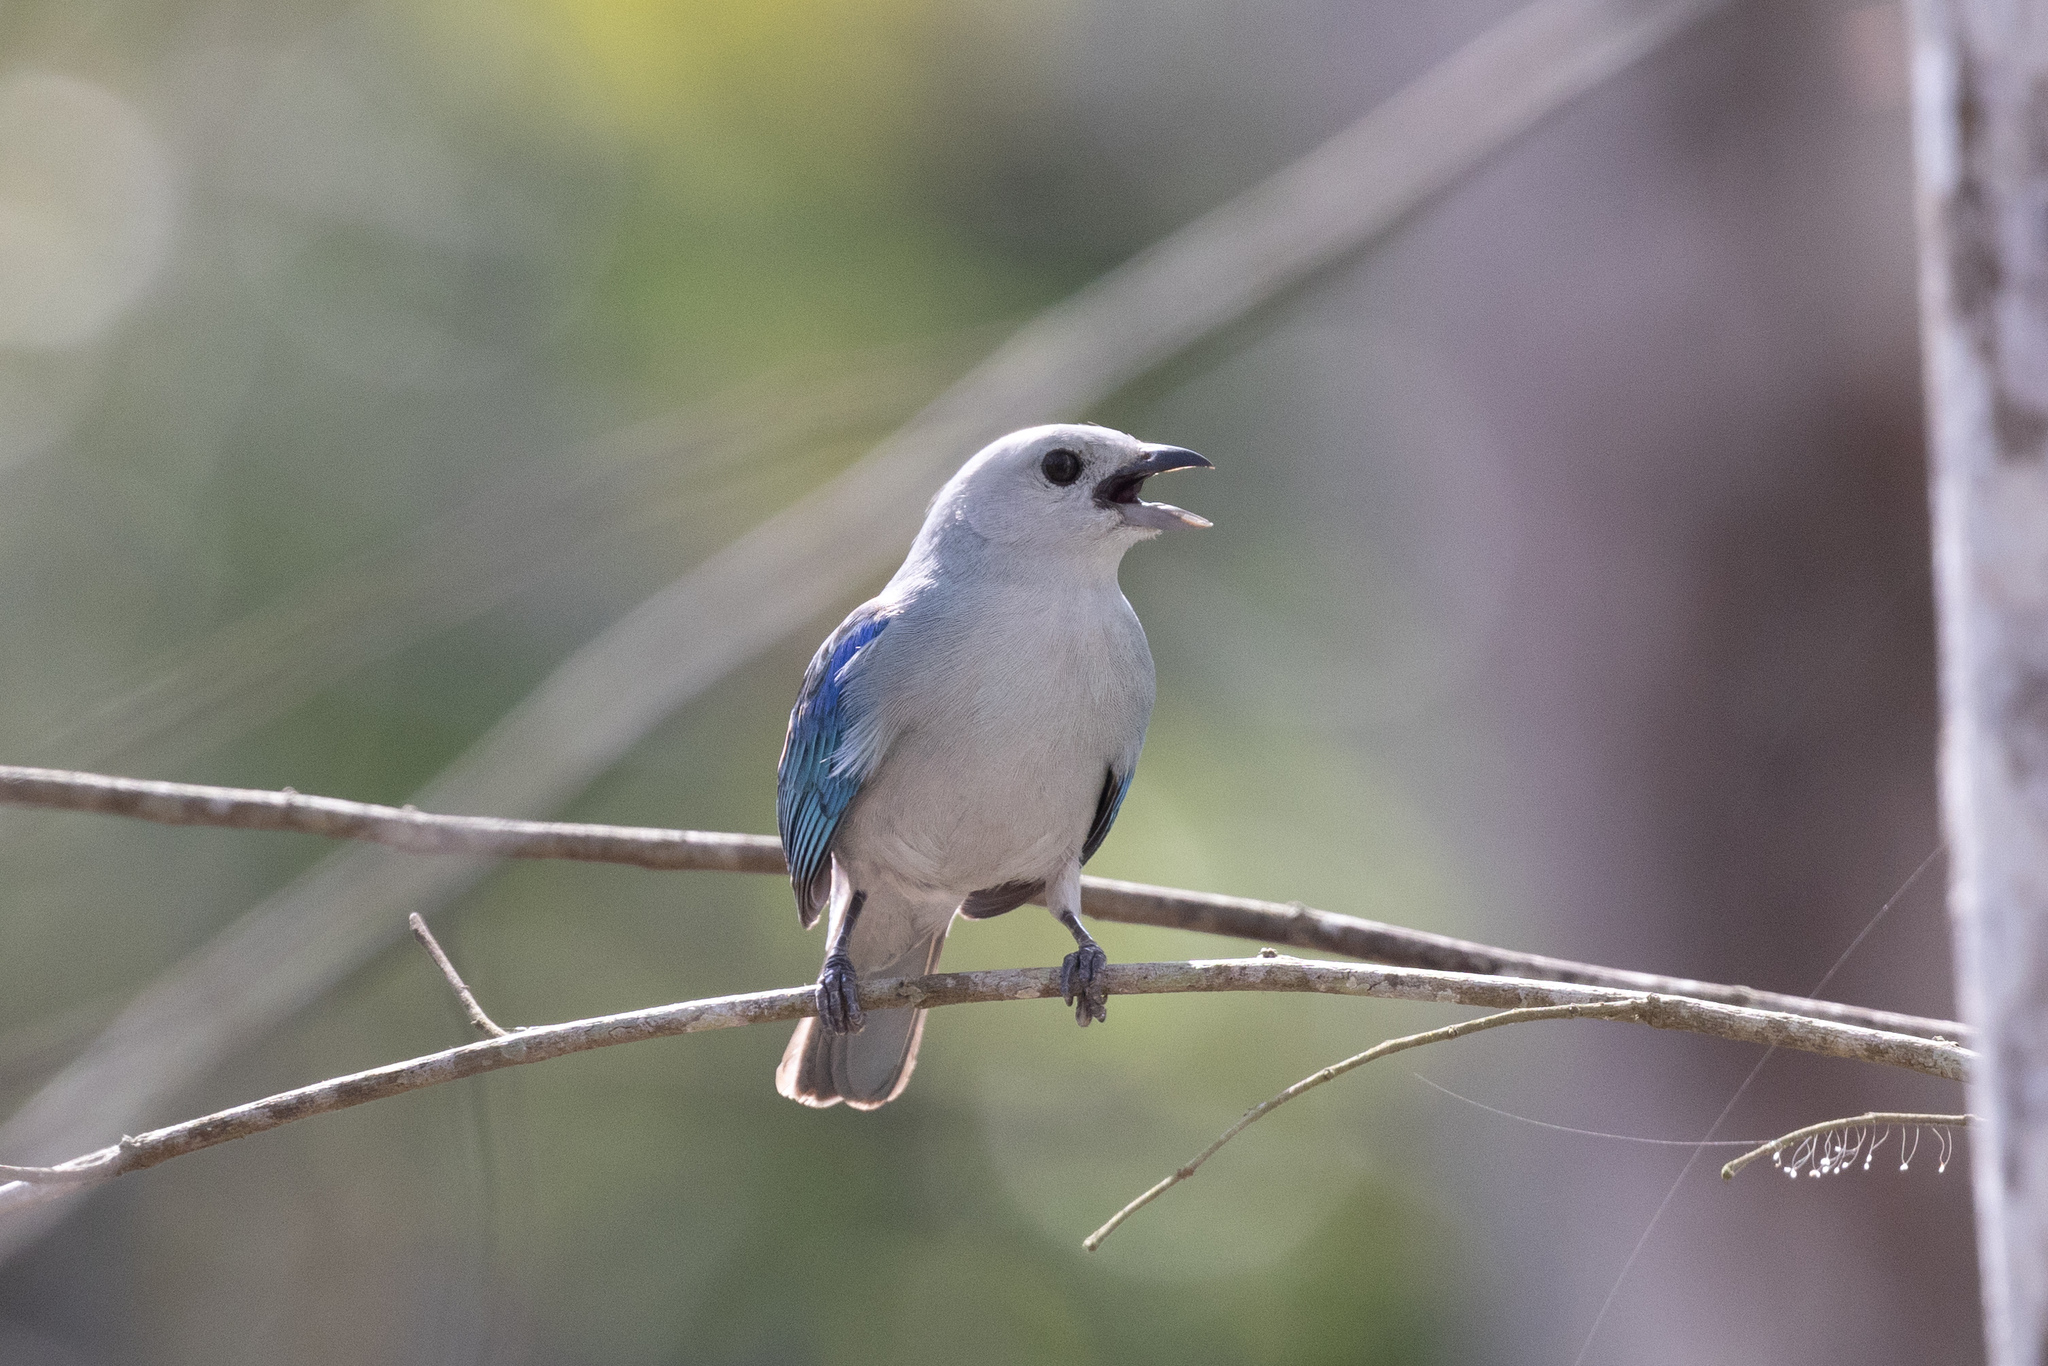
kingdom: Animalia
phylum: Chordata
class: Aves
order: Passeriformes
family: Thraupidae
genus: Thraupis
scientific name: Thraupis episcopus
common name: Blue-grey tanager
